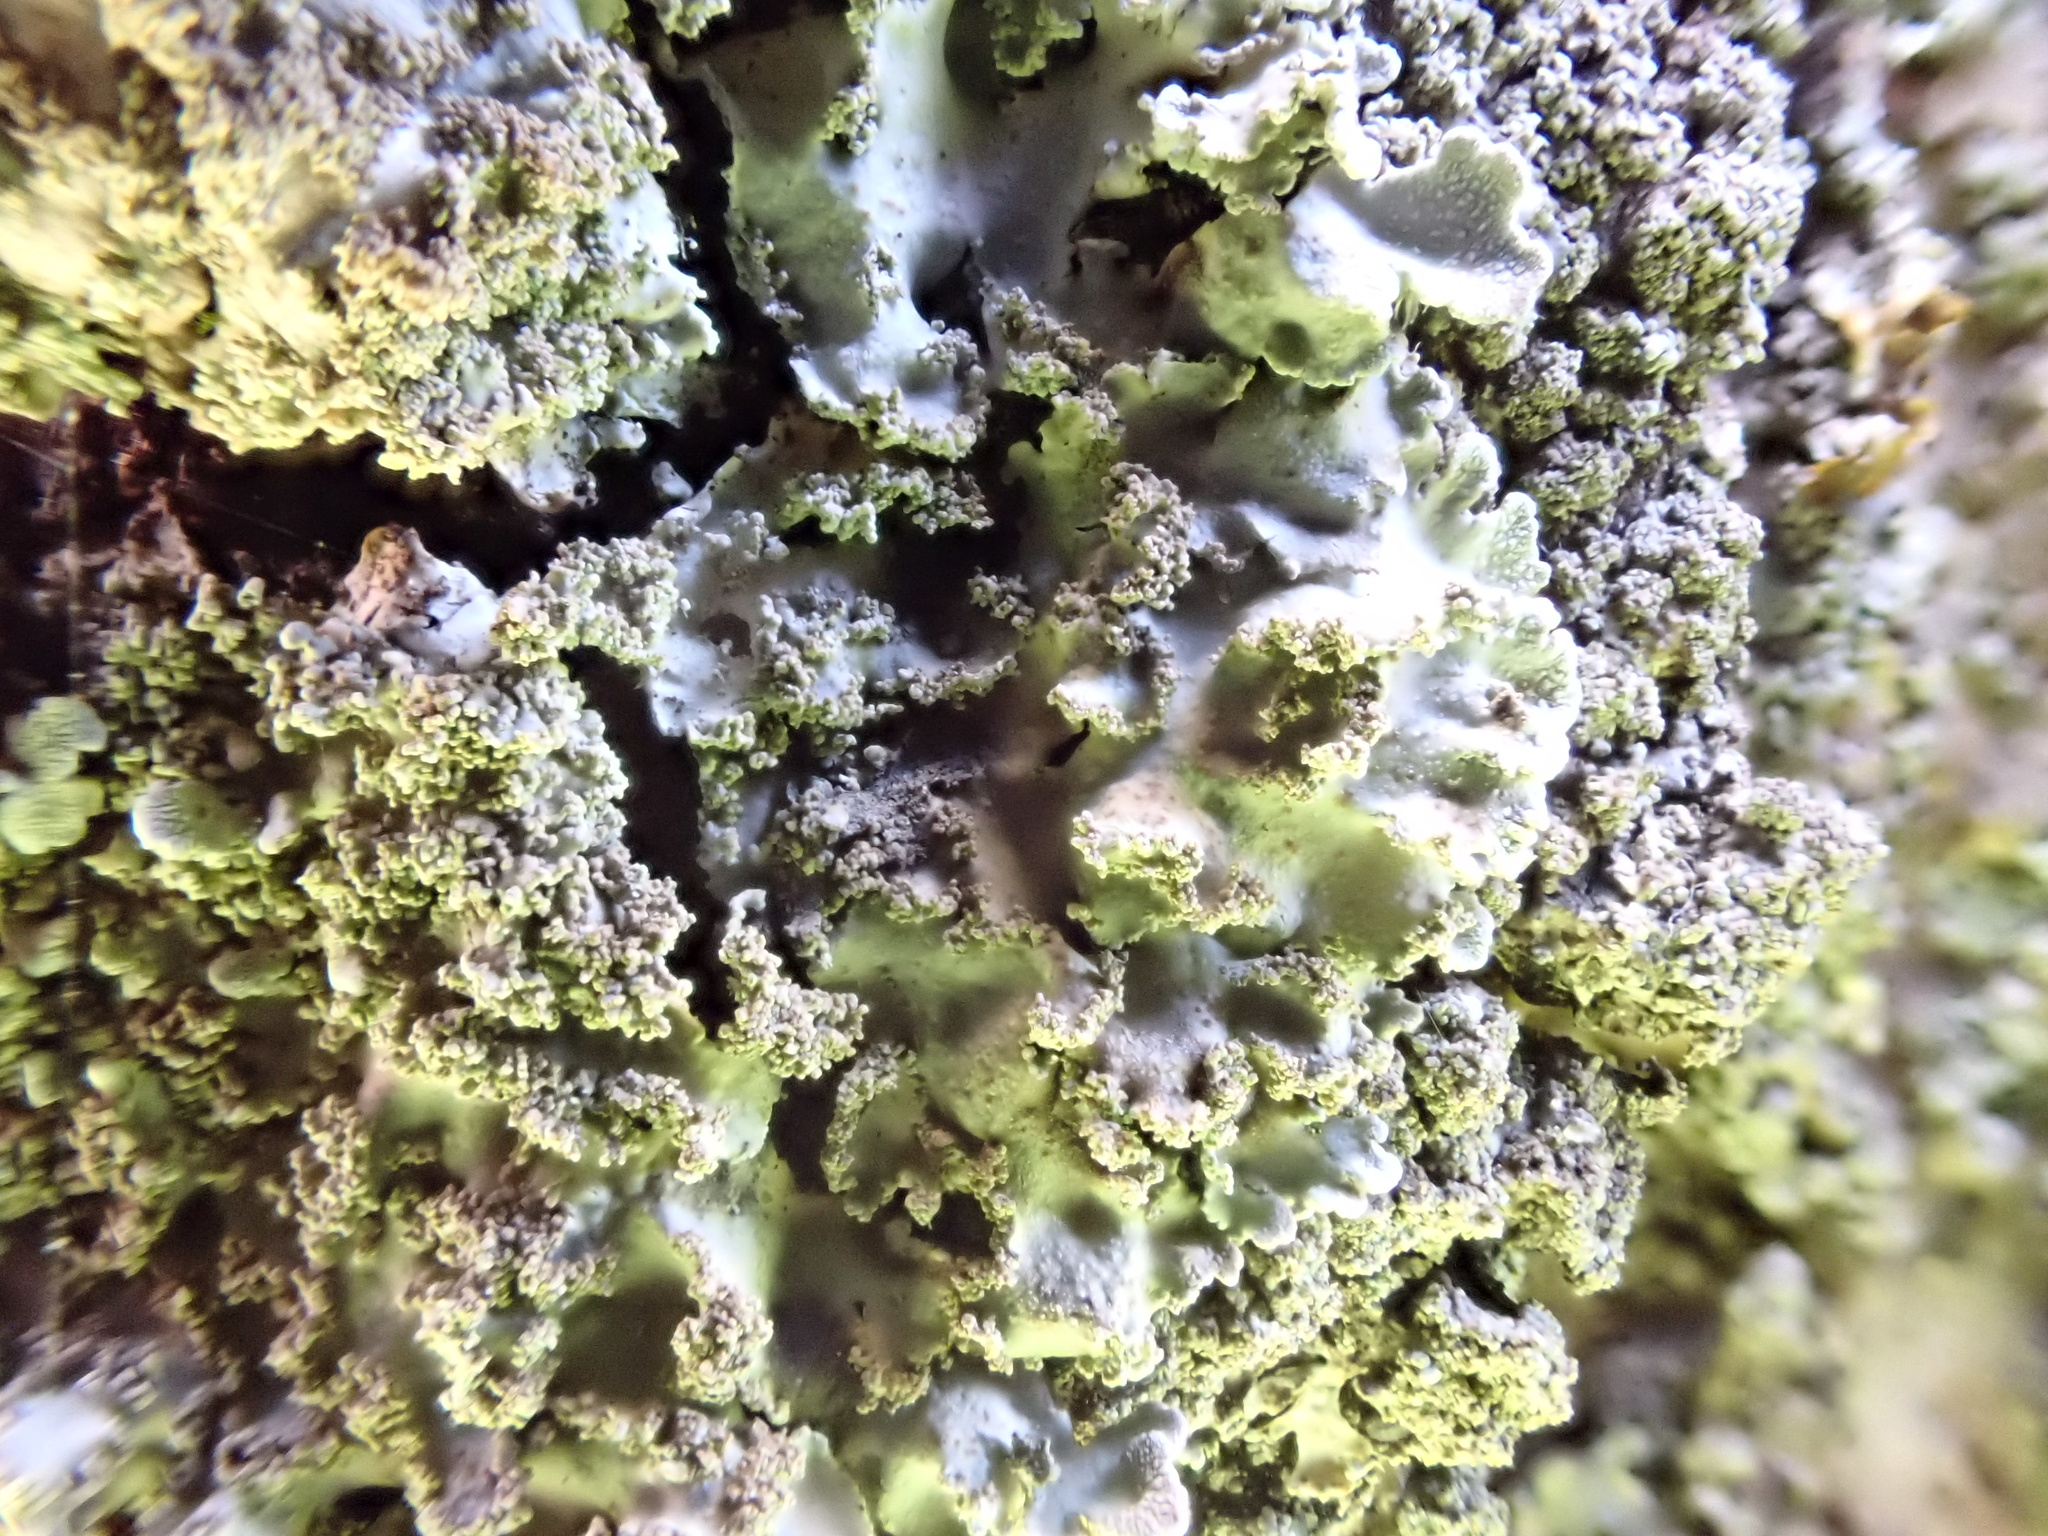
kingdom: Fungi
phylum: Ascomycota
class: Lecanoromycetes
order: Caliciales
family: Physciaceae
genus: Poeltonia
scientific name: Poeltonia grisea
